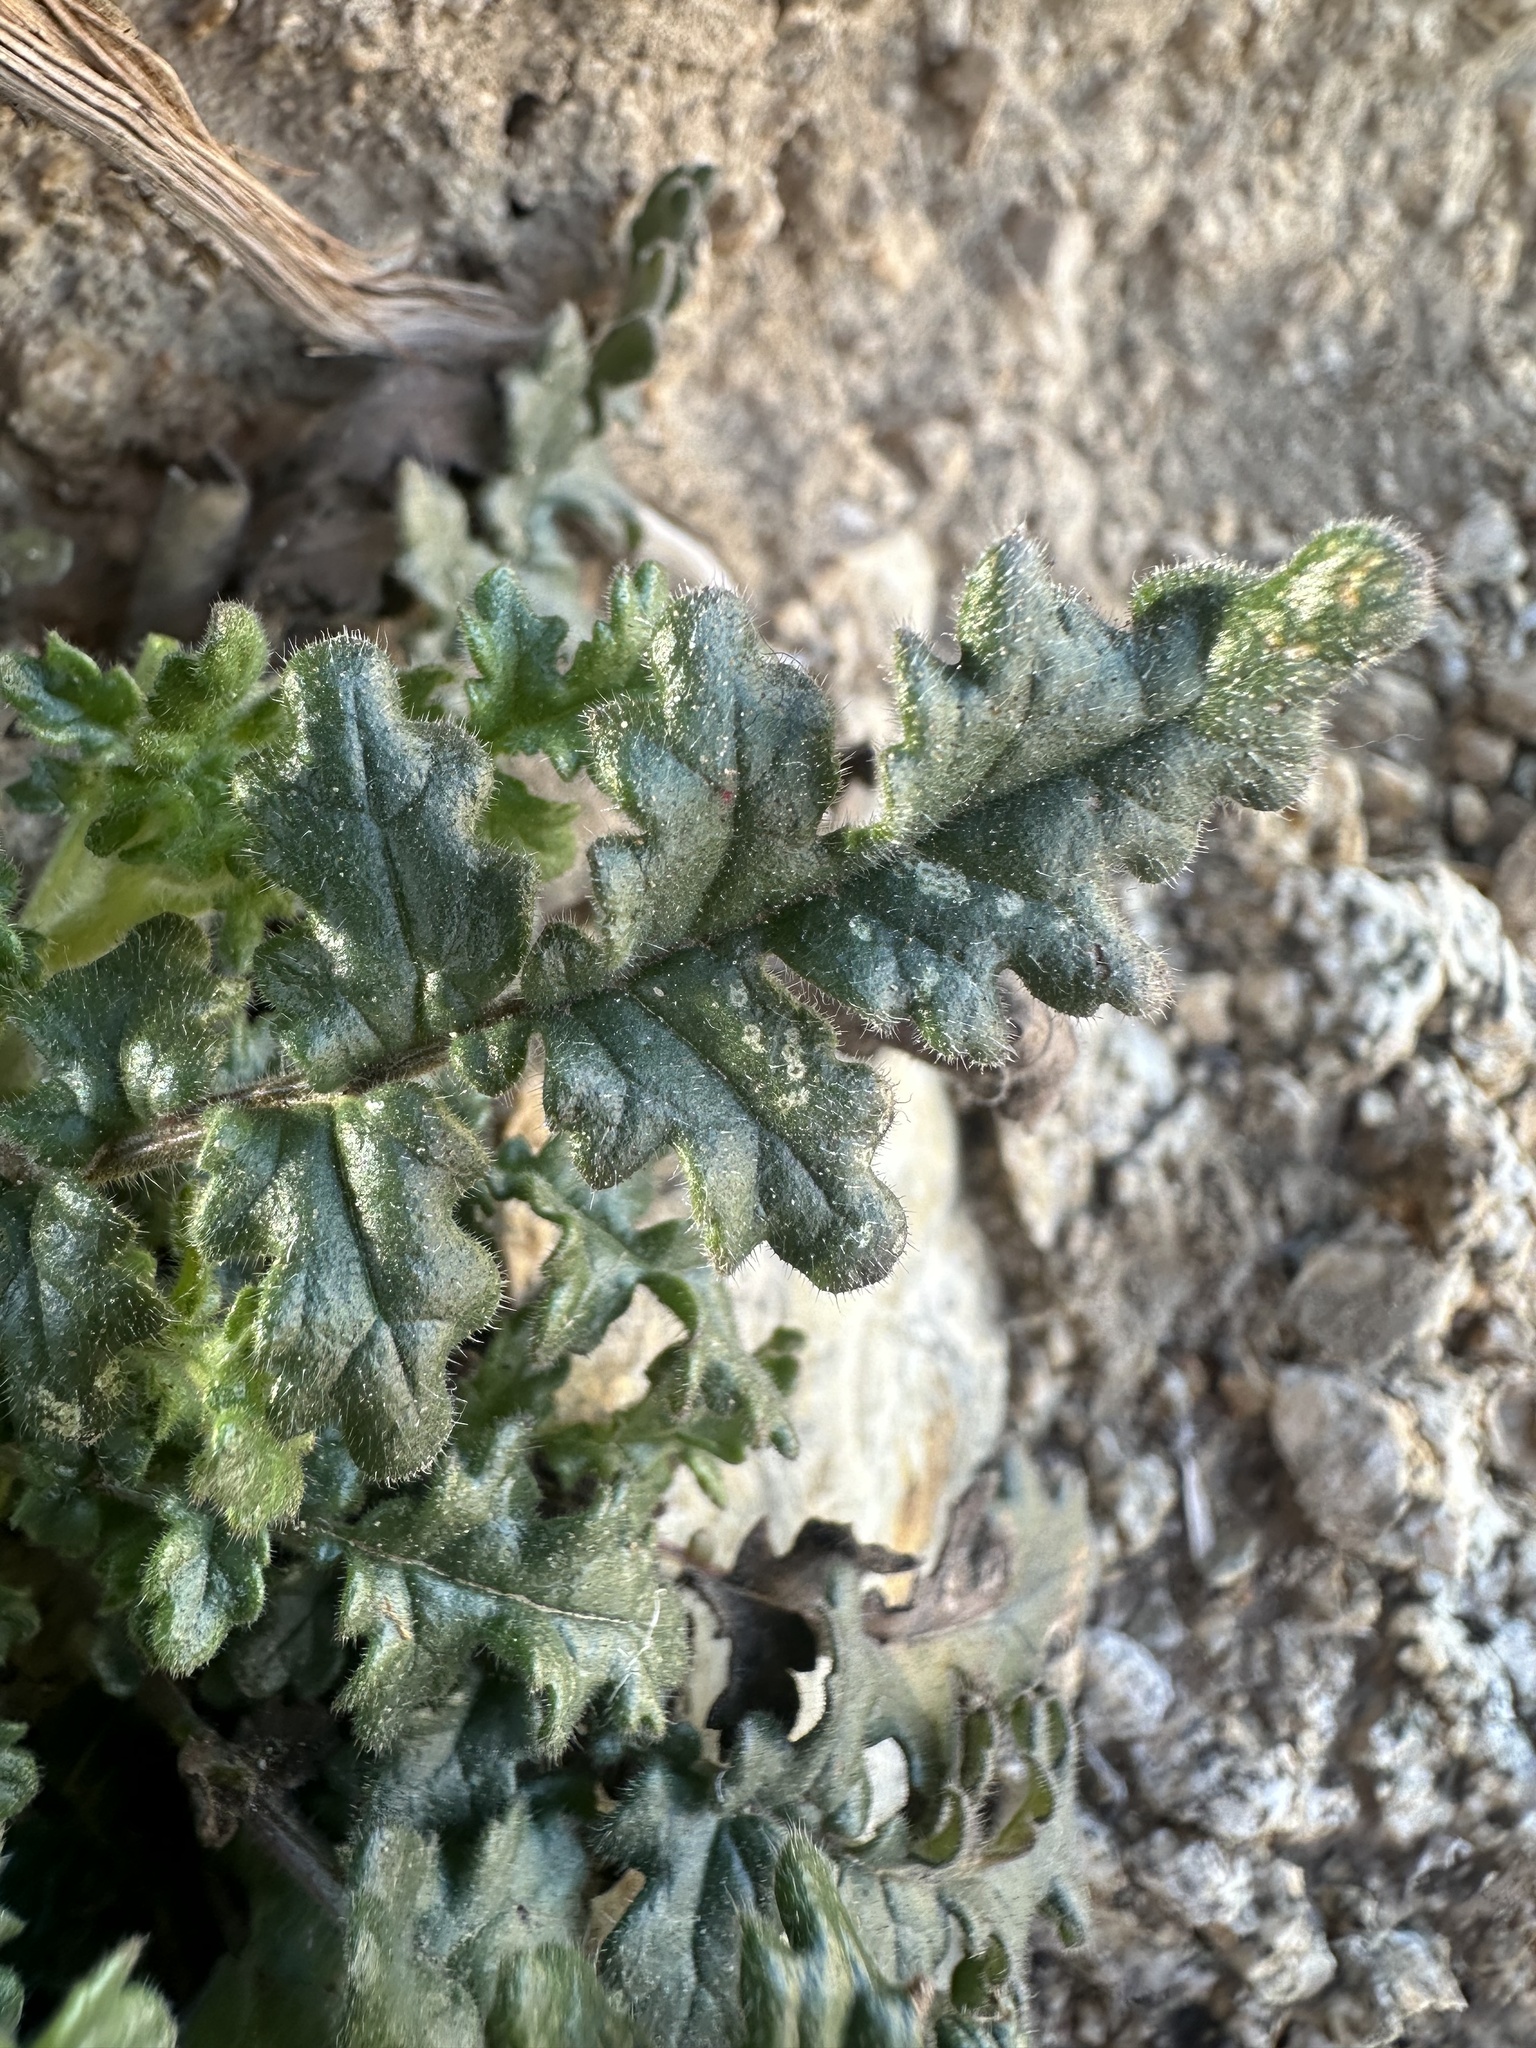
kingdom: Plantae
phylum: Tracheophyta
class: Magnoliopsida
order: Boraginales
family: Hydrophyllaceae
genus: Phacelia
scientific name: Phacelia crenulata
